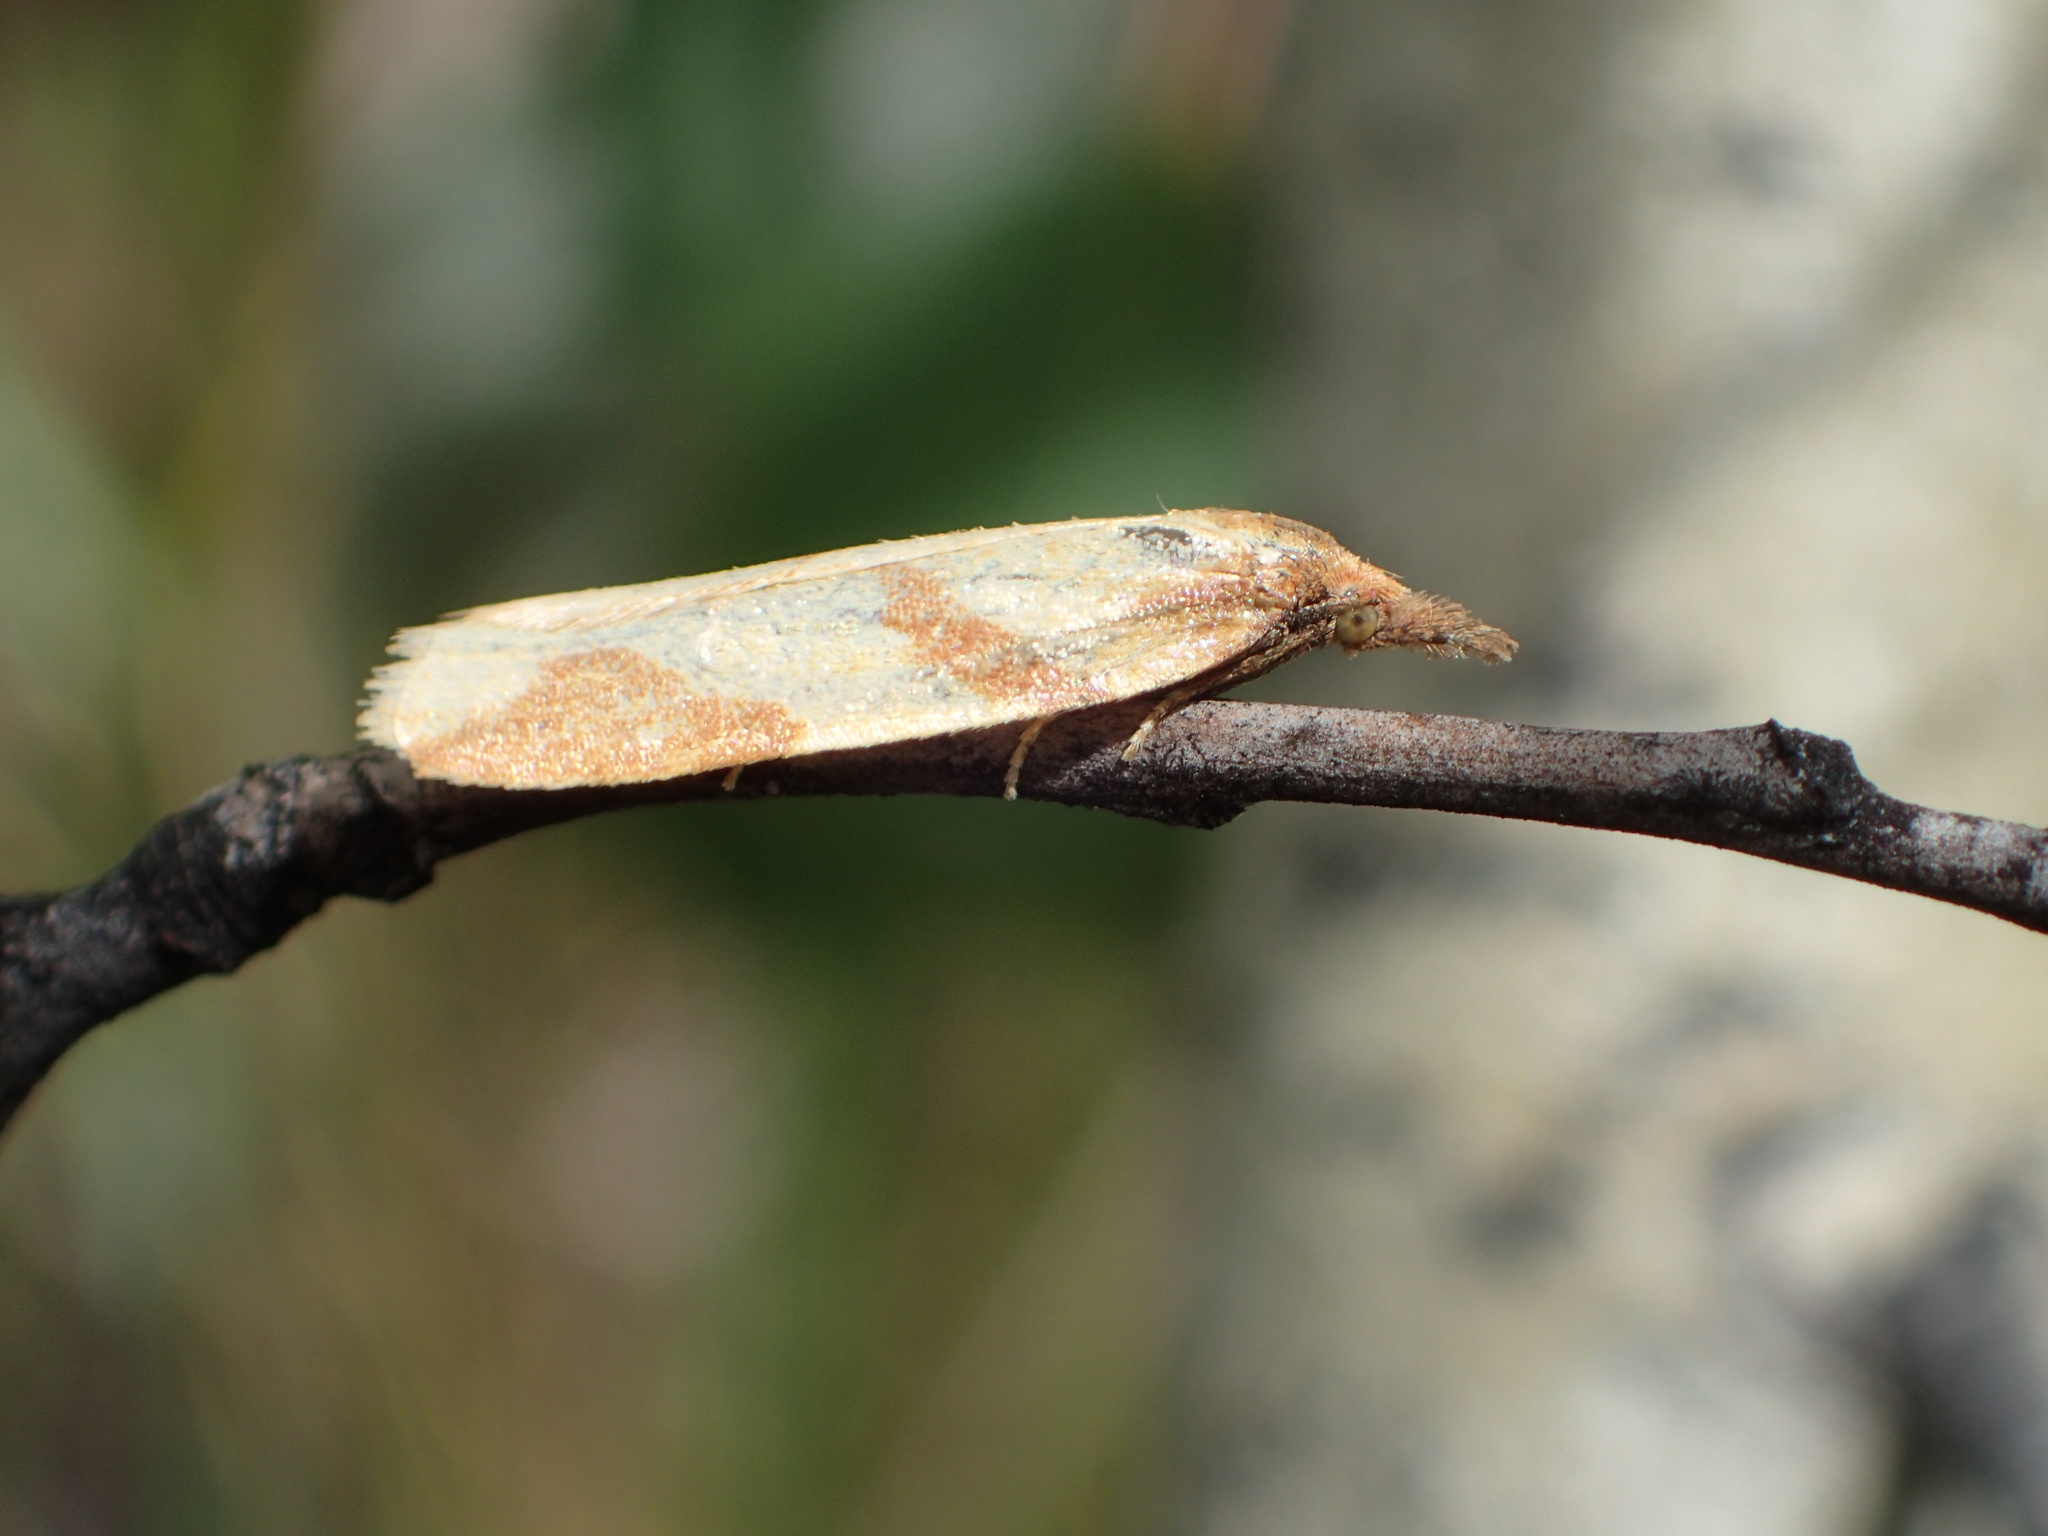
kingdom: Animalia
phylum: Arthropoda
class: Insecta
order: Lepidoptera
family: Tortricidae
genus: Sparganothis
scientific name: Sparganothis vocaridorsana
